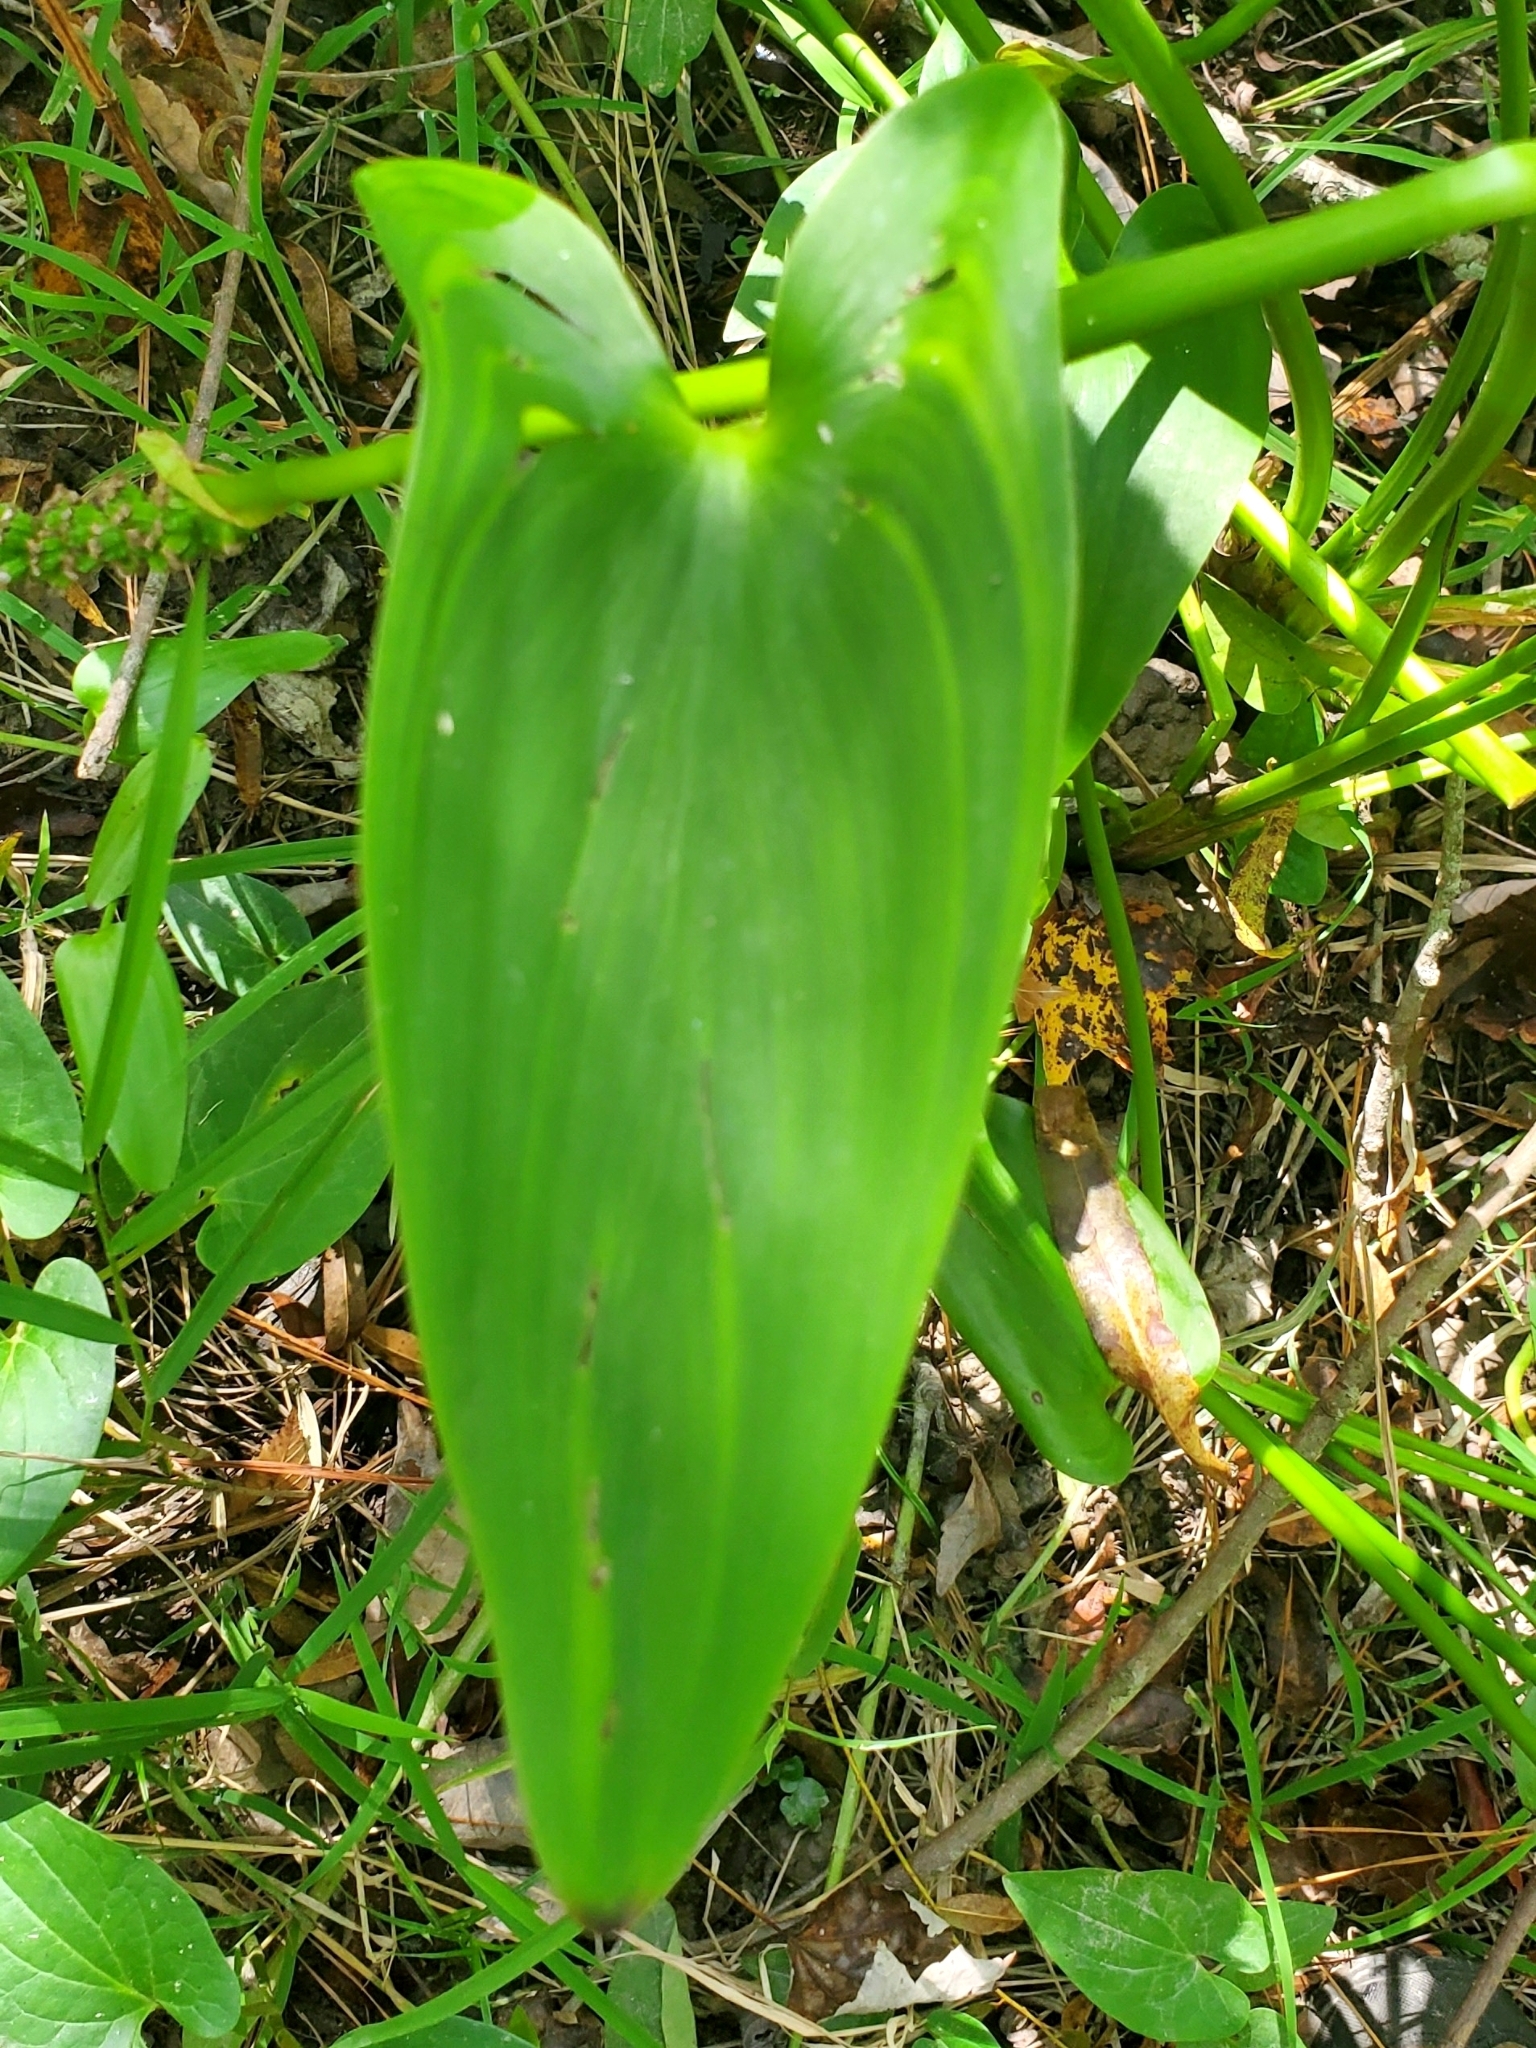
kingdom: Plantae
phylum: Tracheophyta
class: Liliopsida
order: Commelinales
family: Pontederiaceae
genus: Pontederia
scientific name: Pontederia cordata
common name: Pickerelweed
